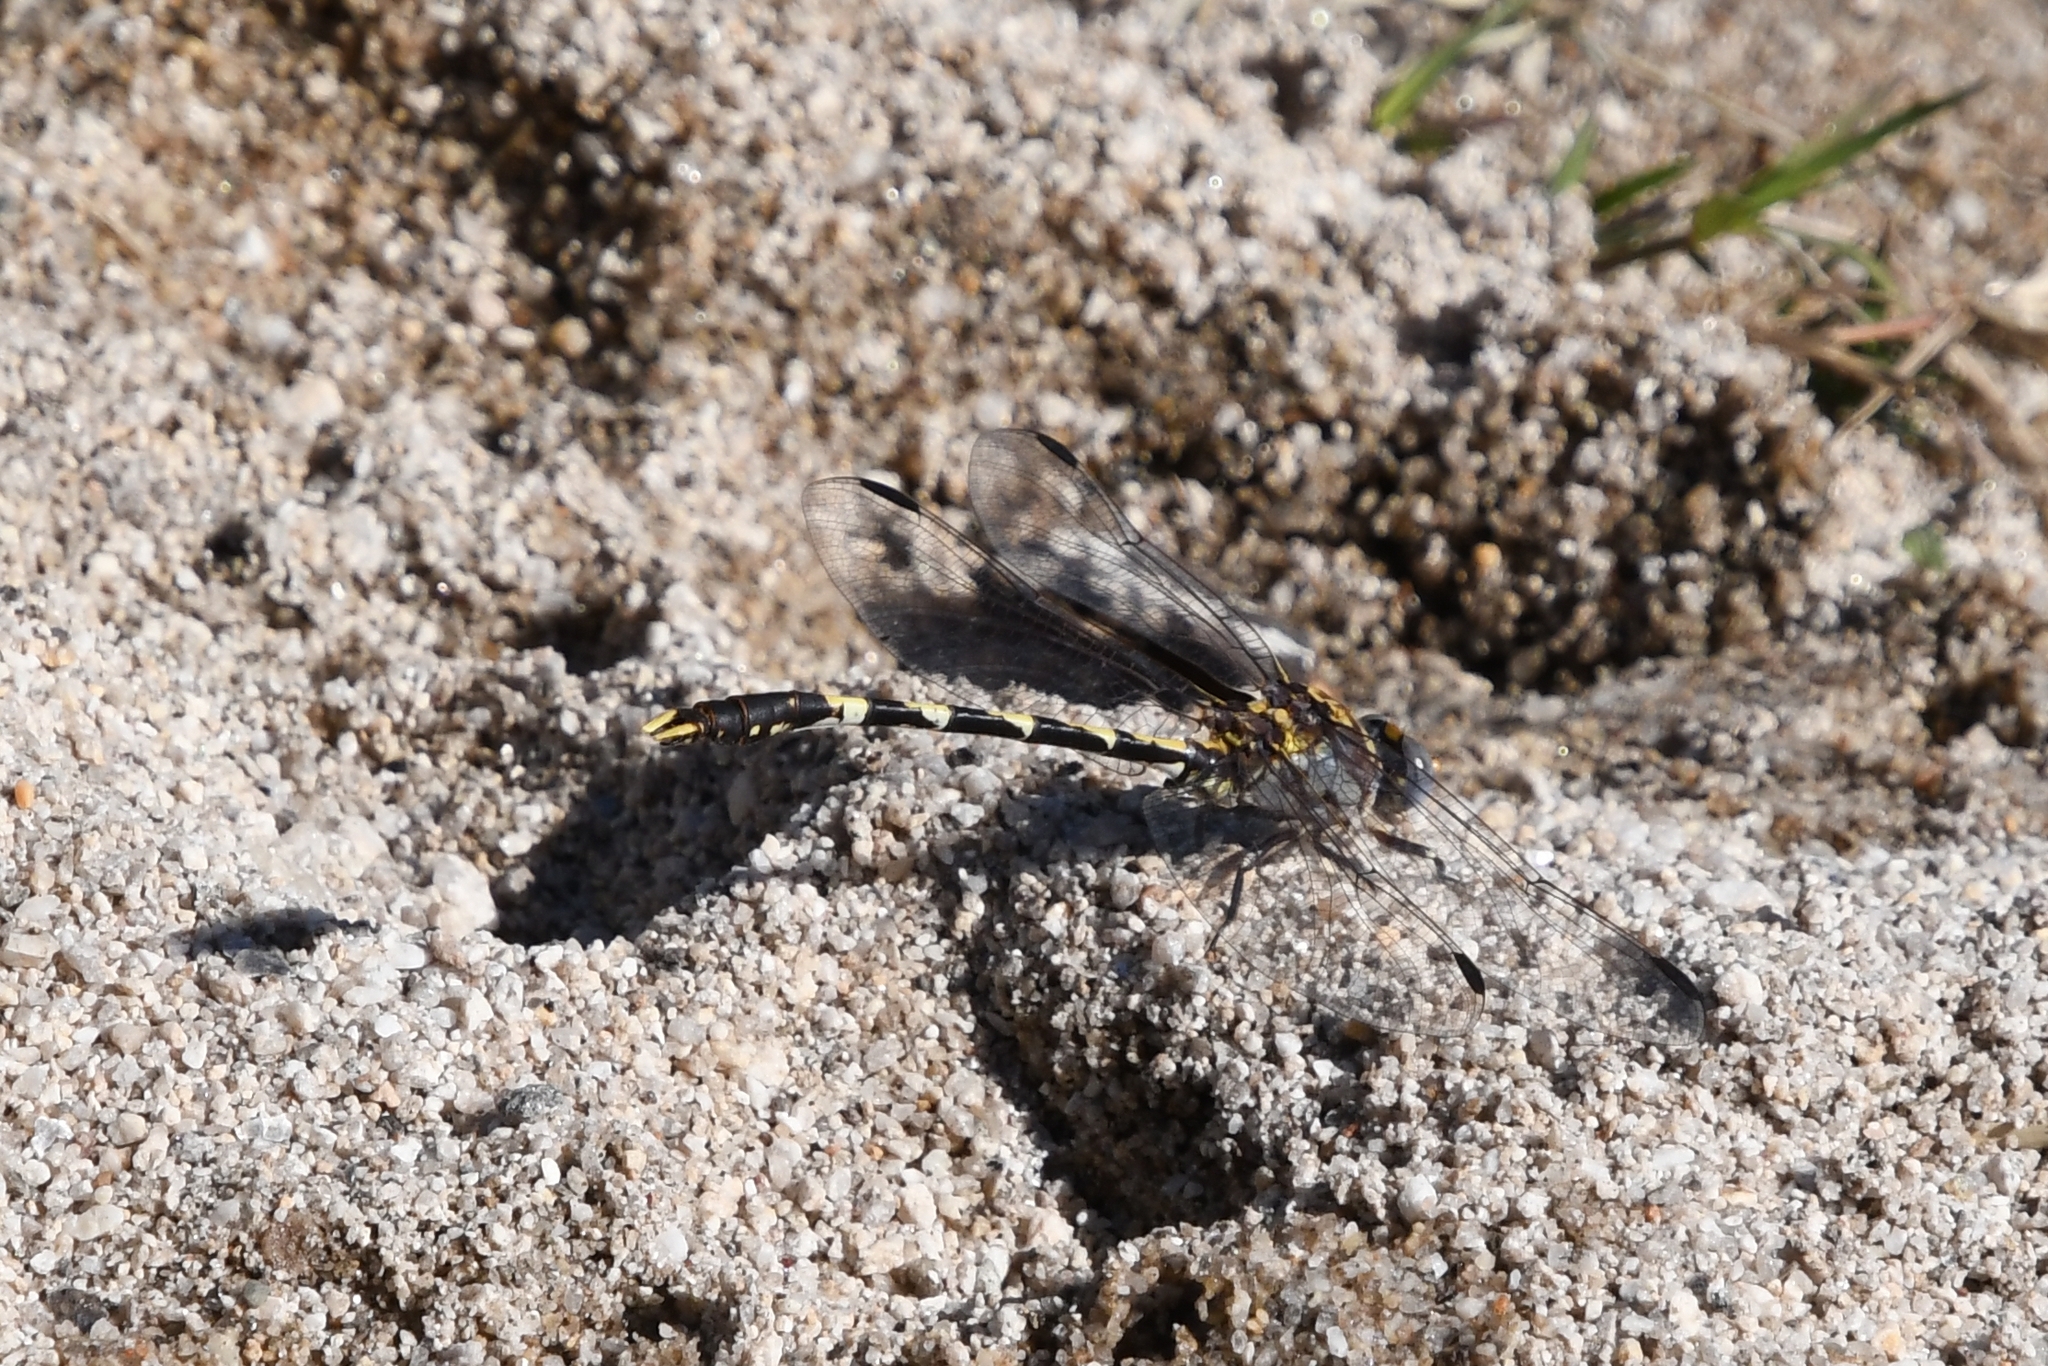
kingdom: Animalia
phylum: Arthropoda
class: Insecta
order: Odonata
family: Gomphidae
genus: Progomphus
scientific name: Progomphus borealis
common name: Gray sanddragon
